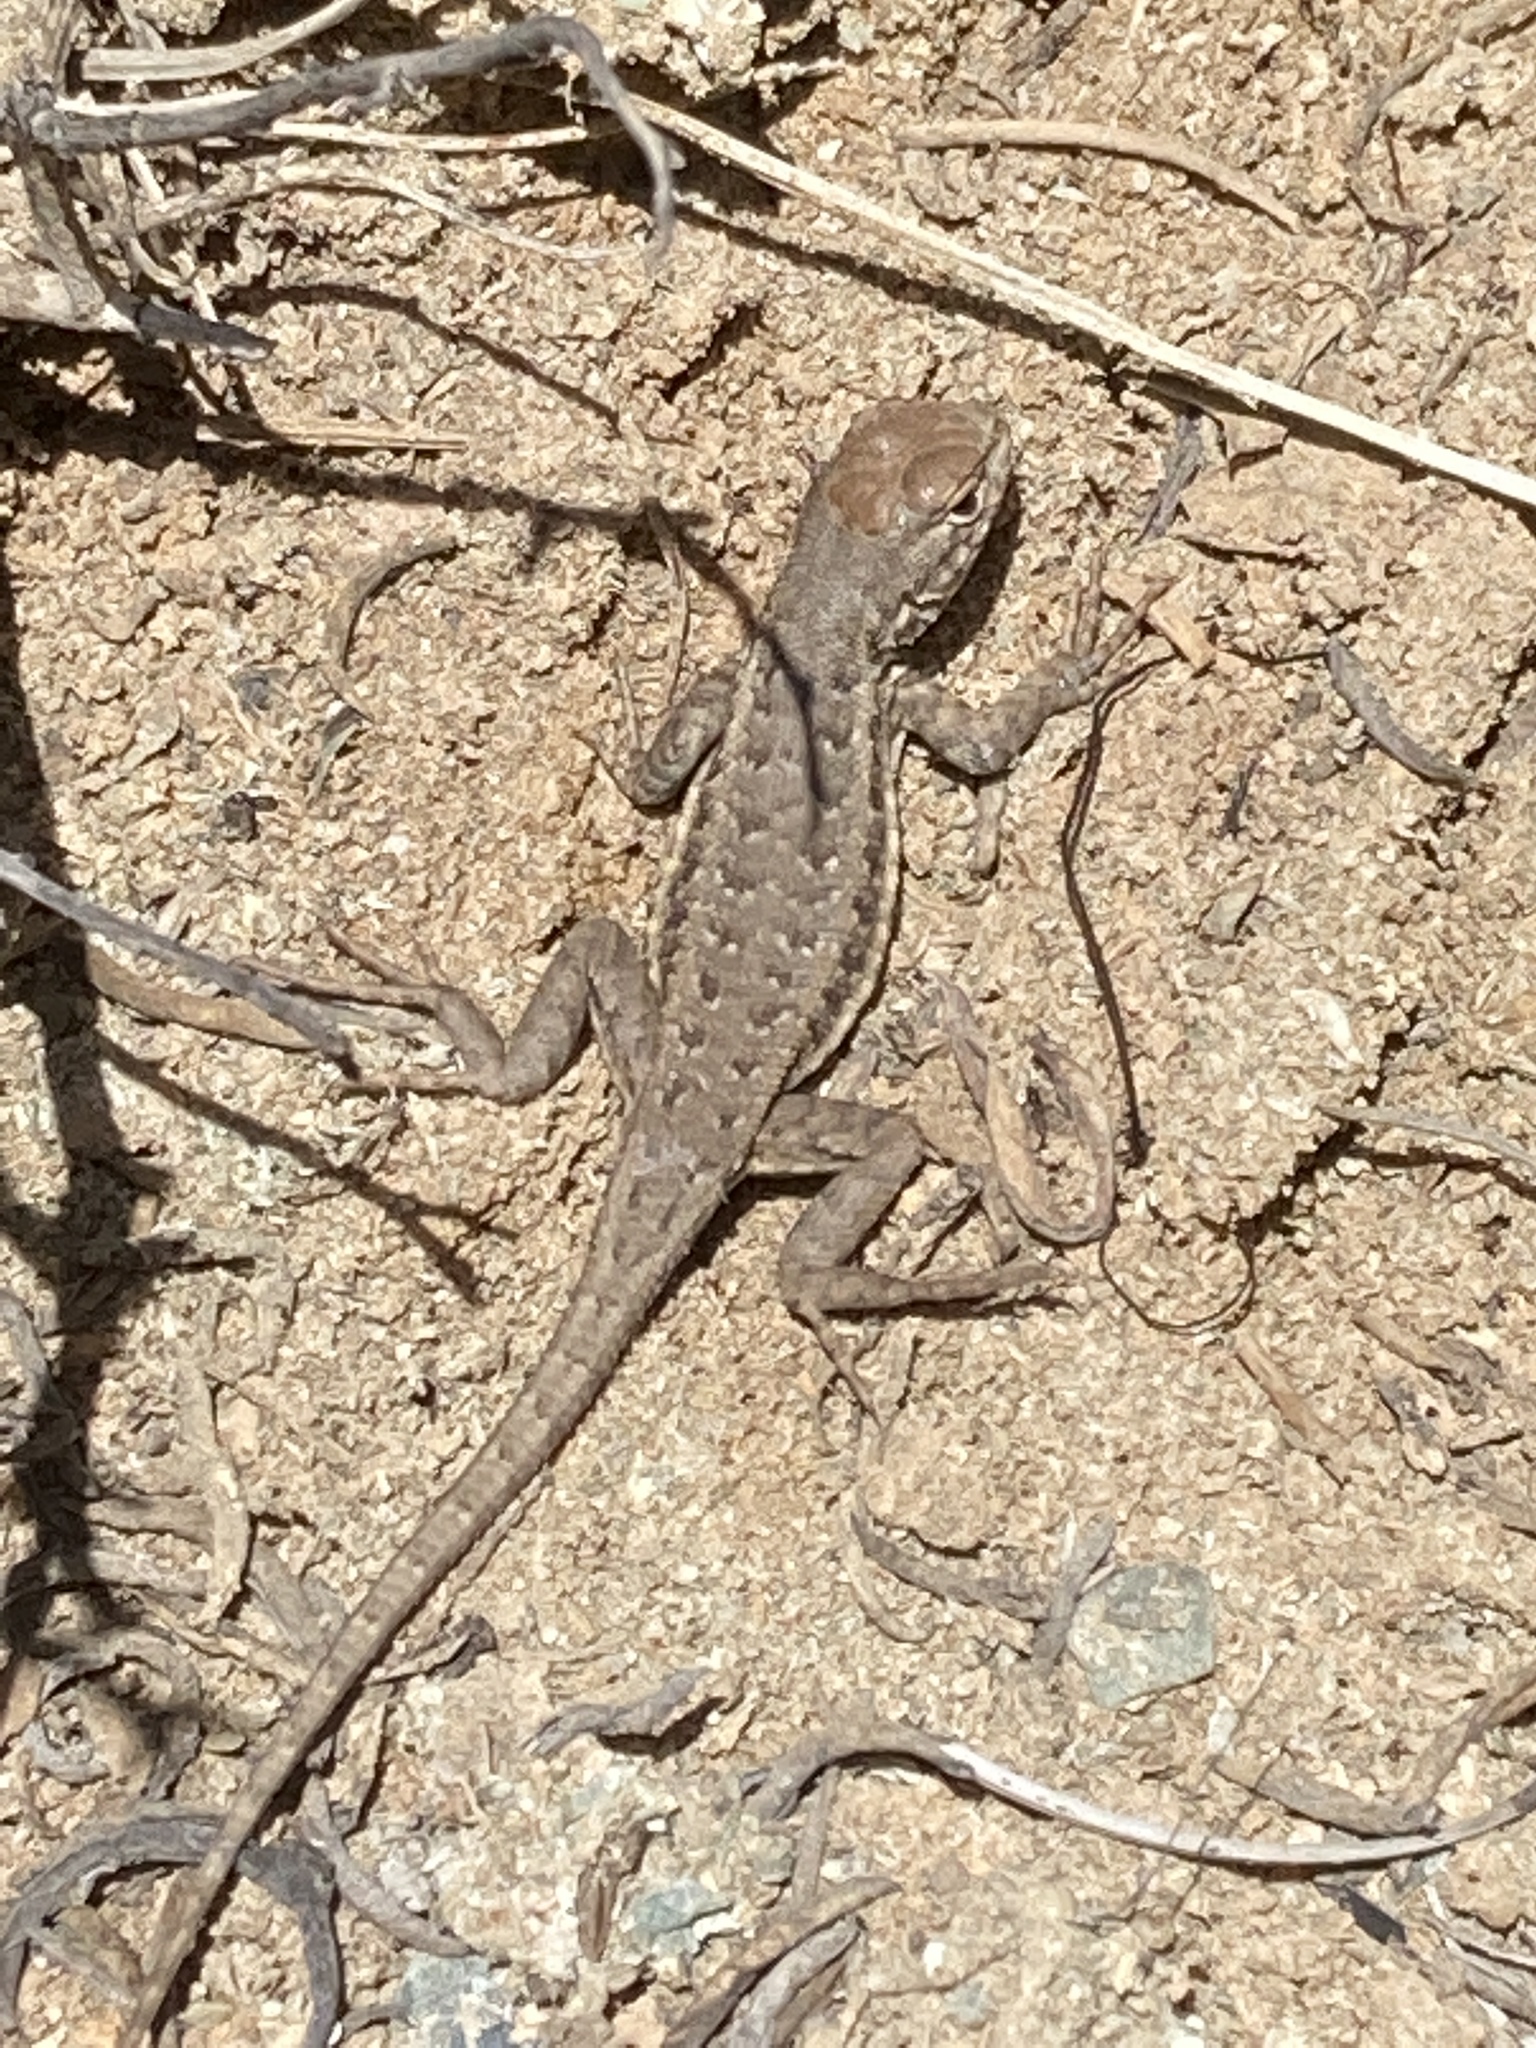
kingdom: Animalia
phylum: Chordata
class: Squamata
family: Phrynosomatidae
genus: Sceloporus
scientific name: Sceloporus graciosus
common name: Sagebrush lizard
